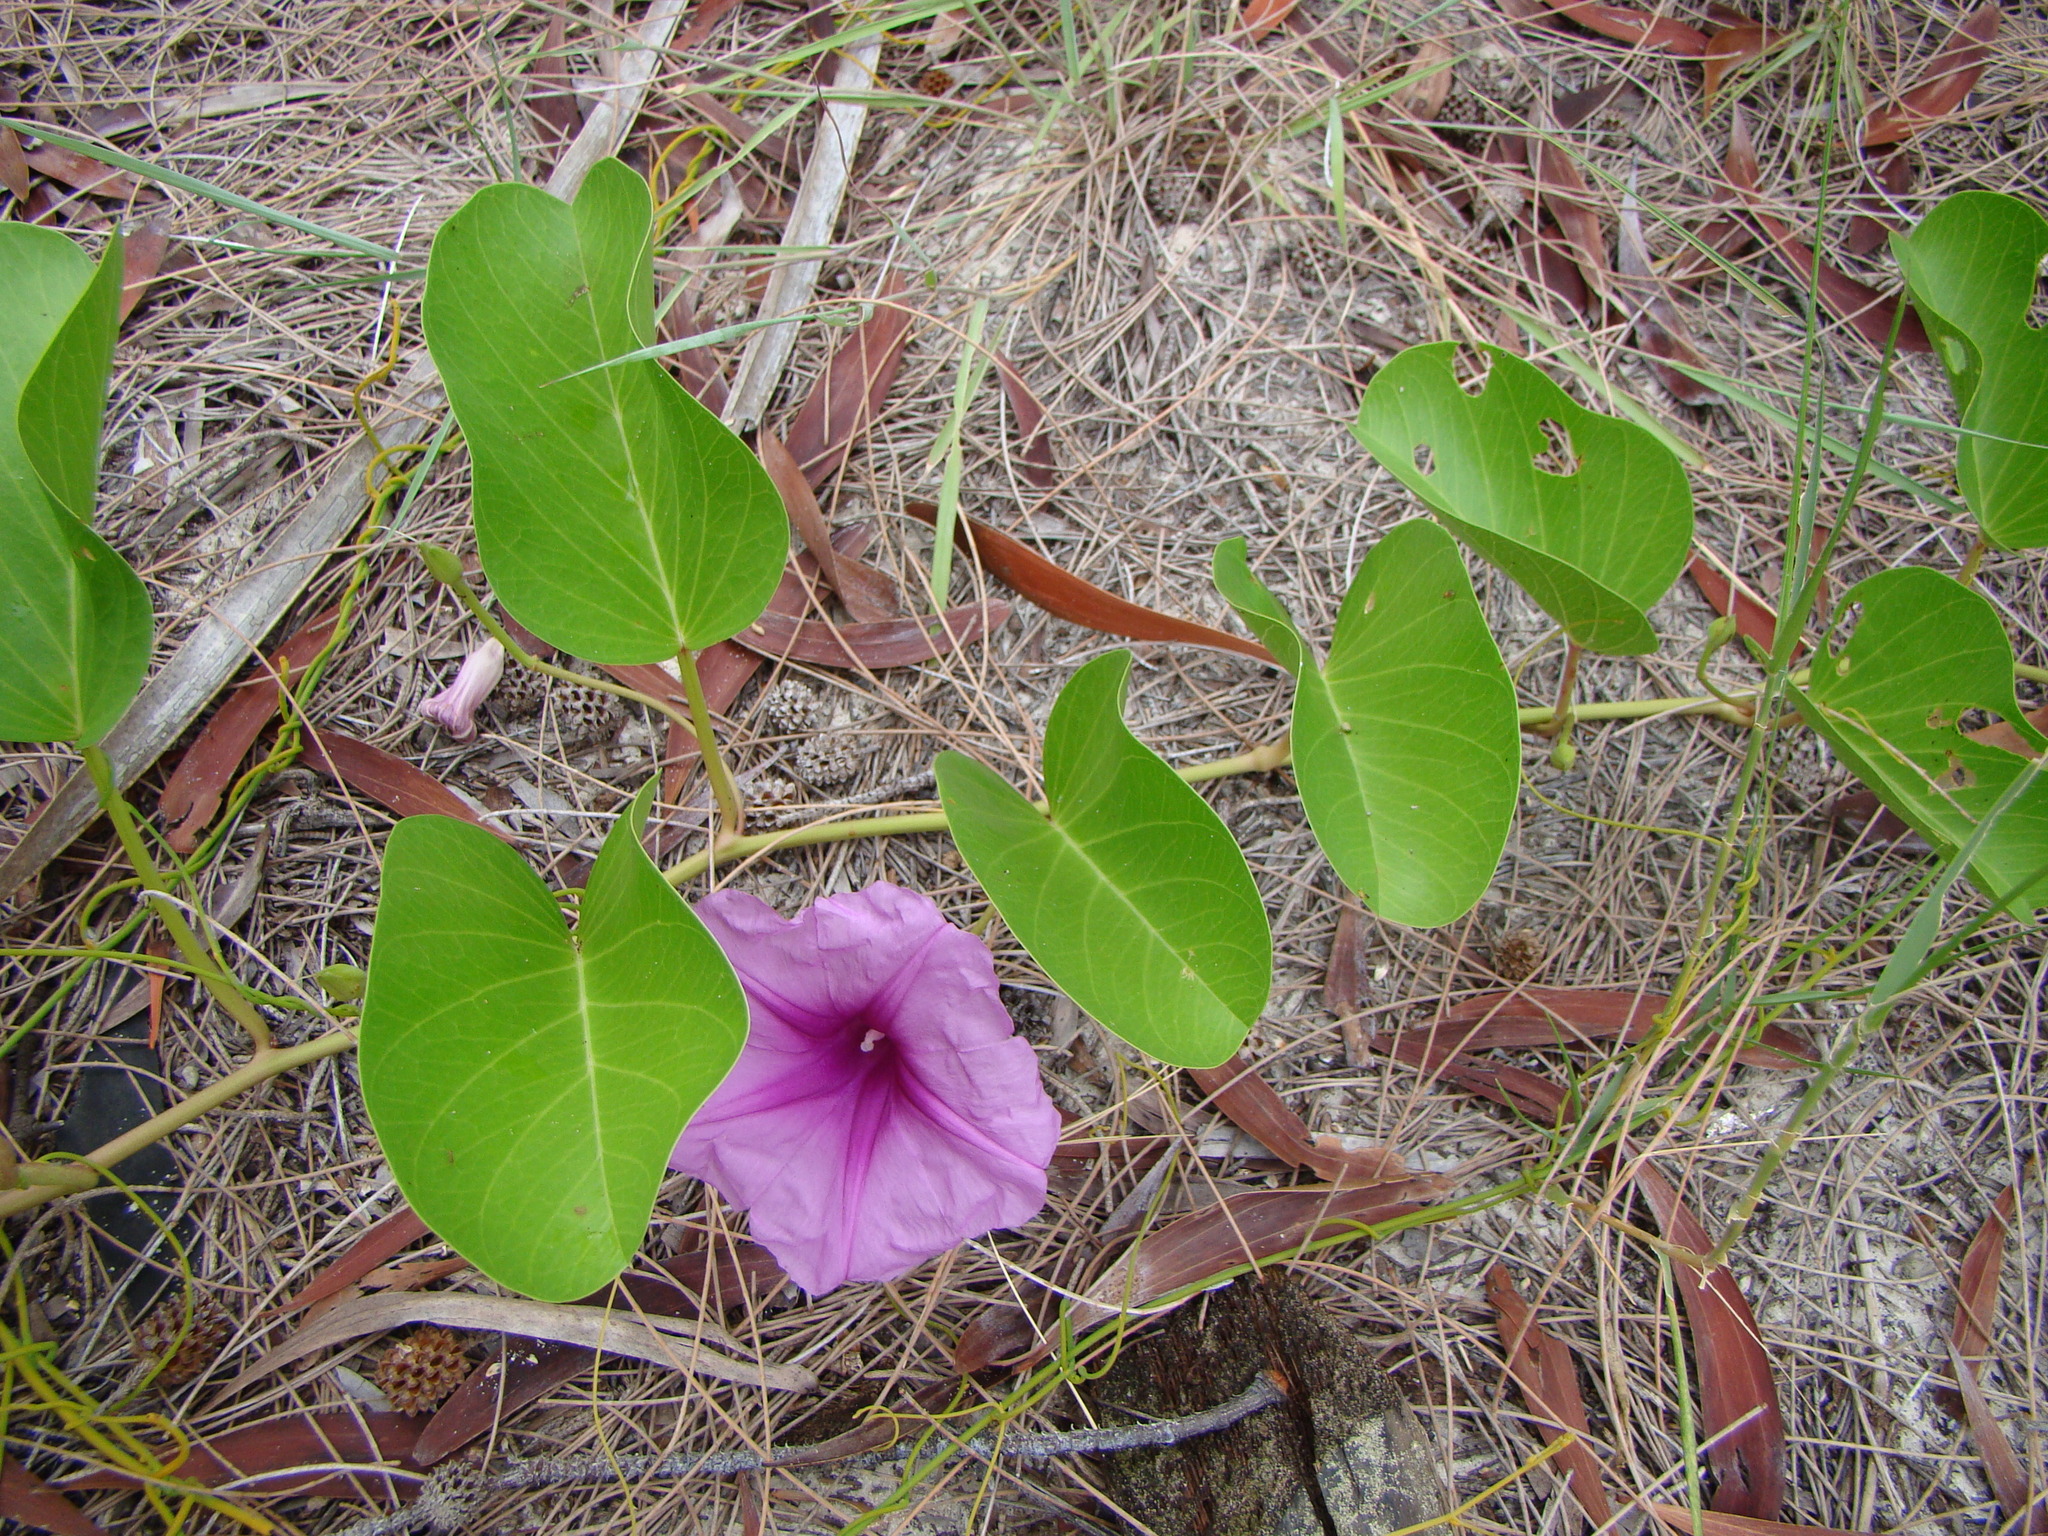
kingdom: Plantae
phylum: Tracheophyta
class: Magnoliopsida
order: Solanales
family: Convolvulaceae
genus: Ipomoea
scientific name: Ipomoea pes-caprae
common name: Beach morning glory
